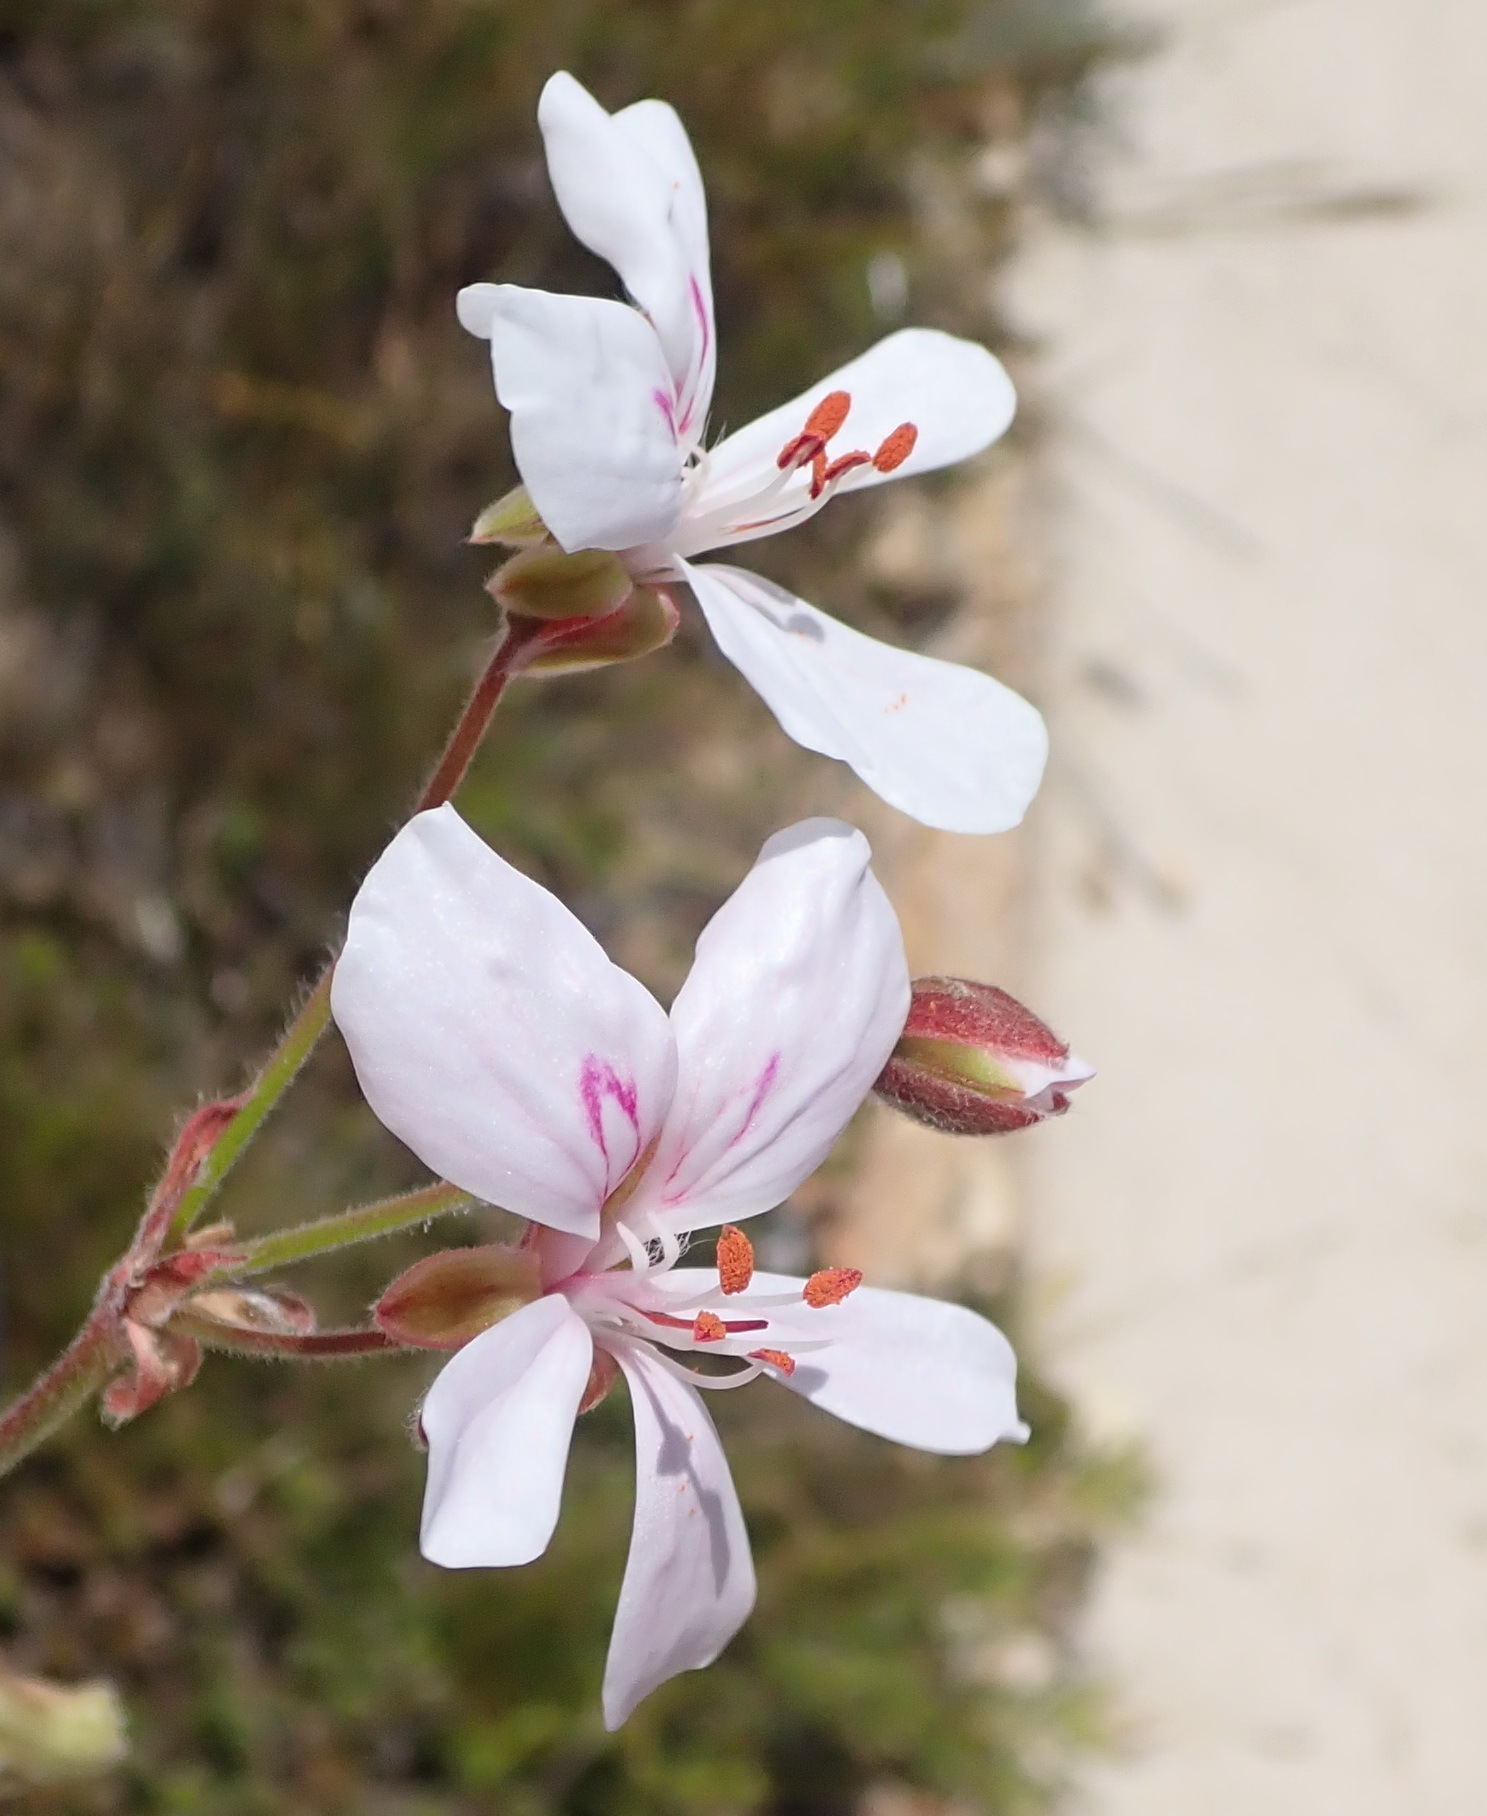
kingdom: Plantae
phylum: Tracheophyta
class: Magnoliopsida
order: Geraniales
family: Geraniaceae
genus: Pelargonium
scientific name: Pelargonium ovale
